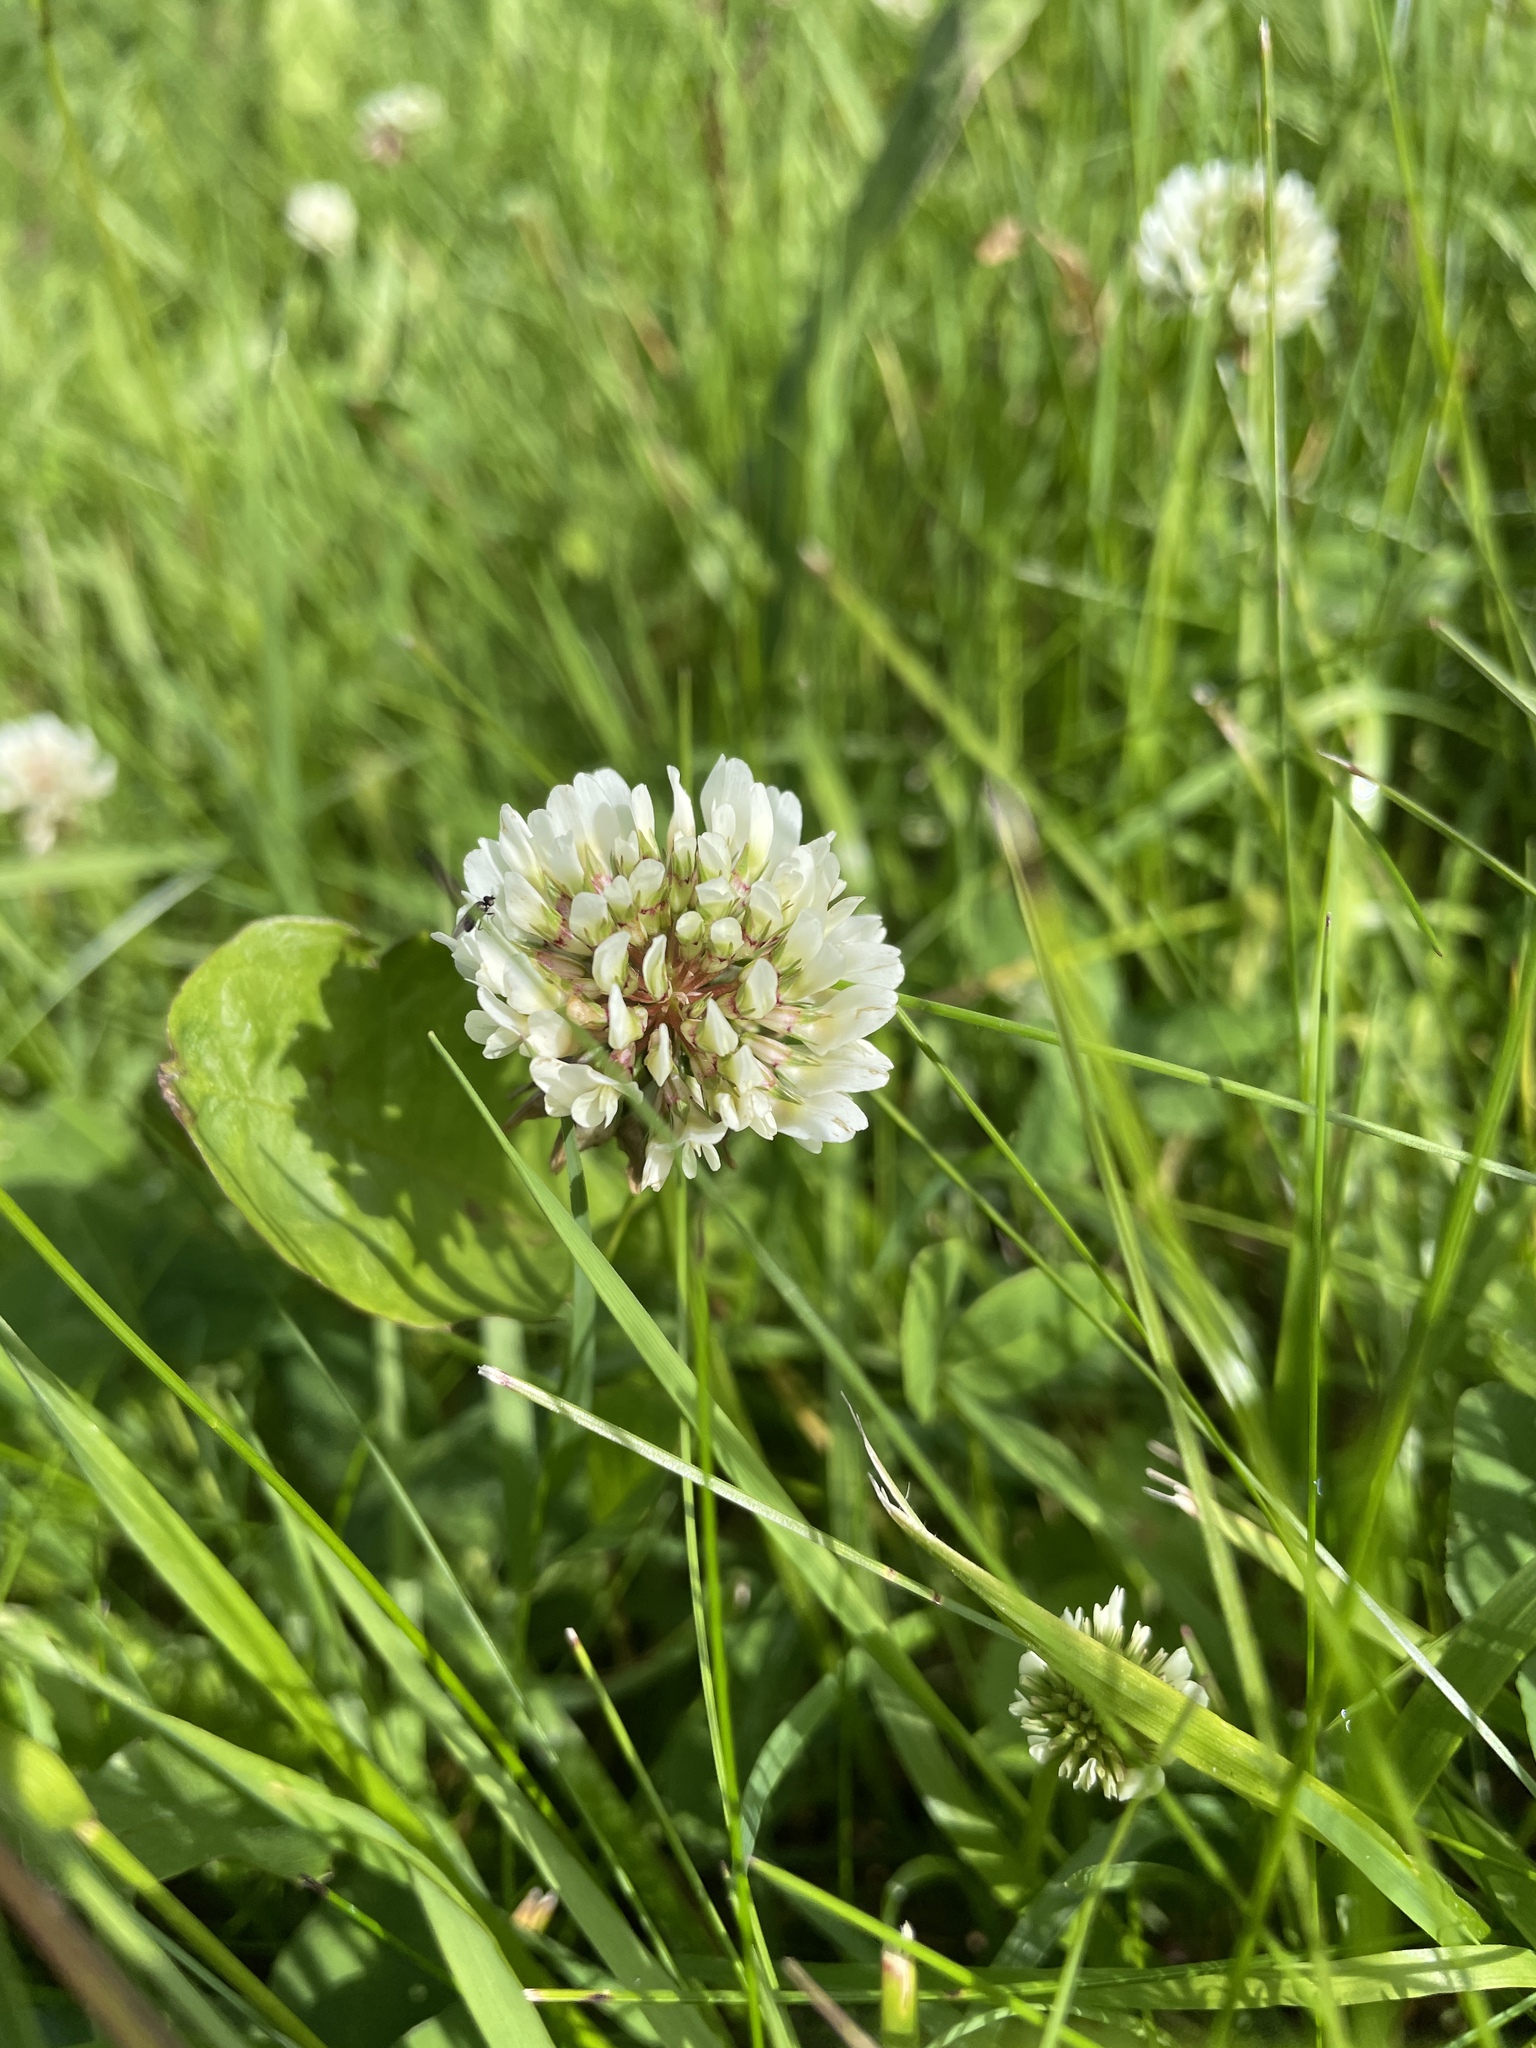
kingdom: Plantae
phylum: Tracheophyta
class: Magnoliopsida
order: Fabales
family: Fabaceae
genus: Trifolium
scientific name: Trifolium repens
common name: White clover
